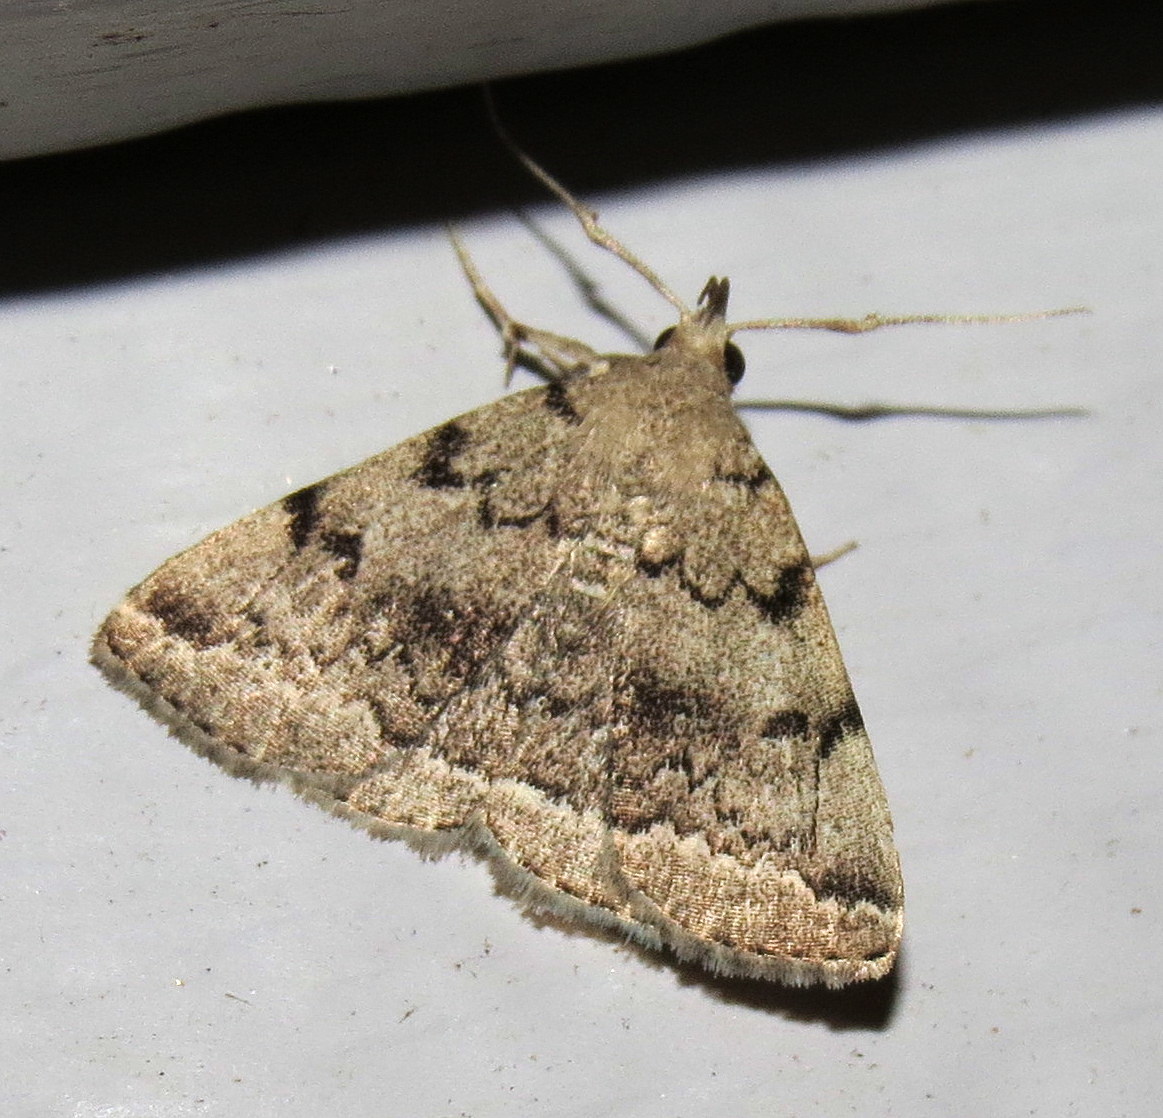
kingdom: Animalia
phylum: Arthropoda
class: Insecta
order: Lepidoptera
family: Erebidae
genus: Zanclognatha
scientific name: Zanclognatha theralis
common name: Flagged fan-foot
